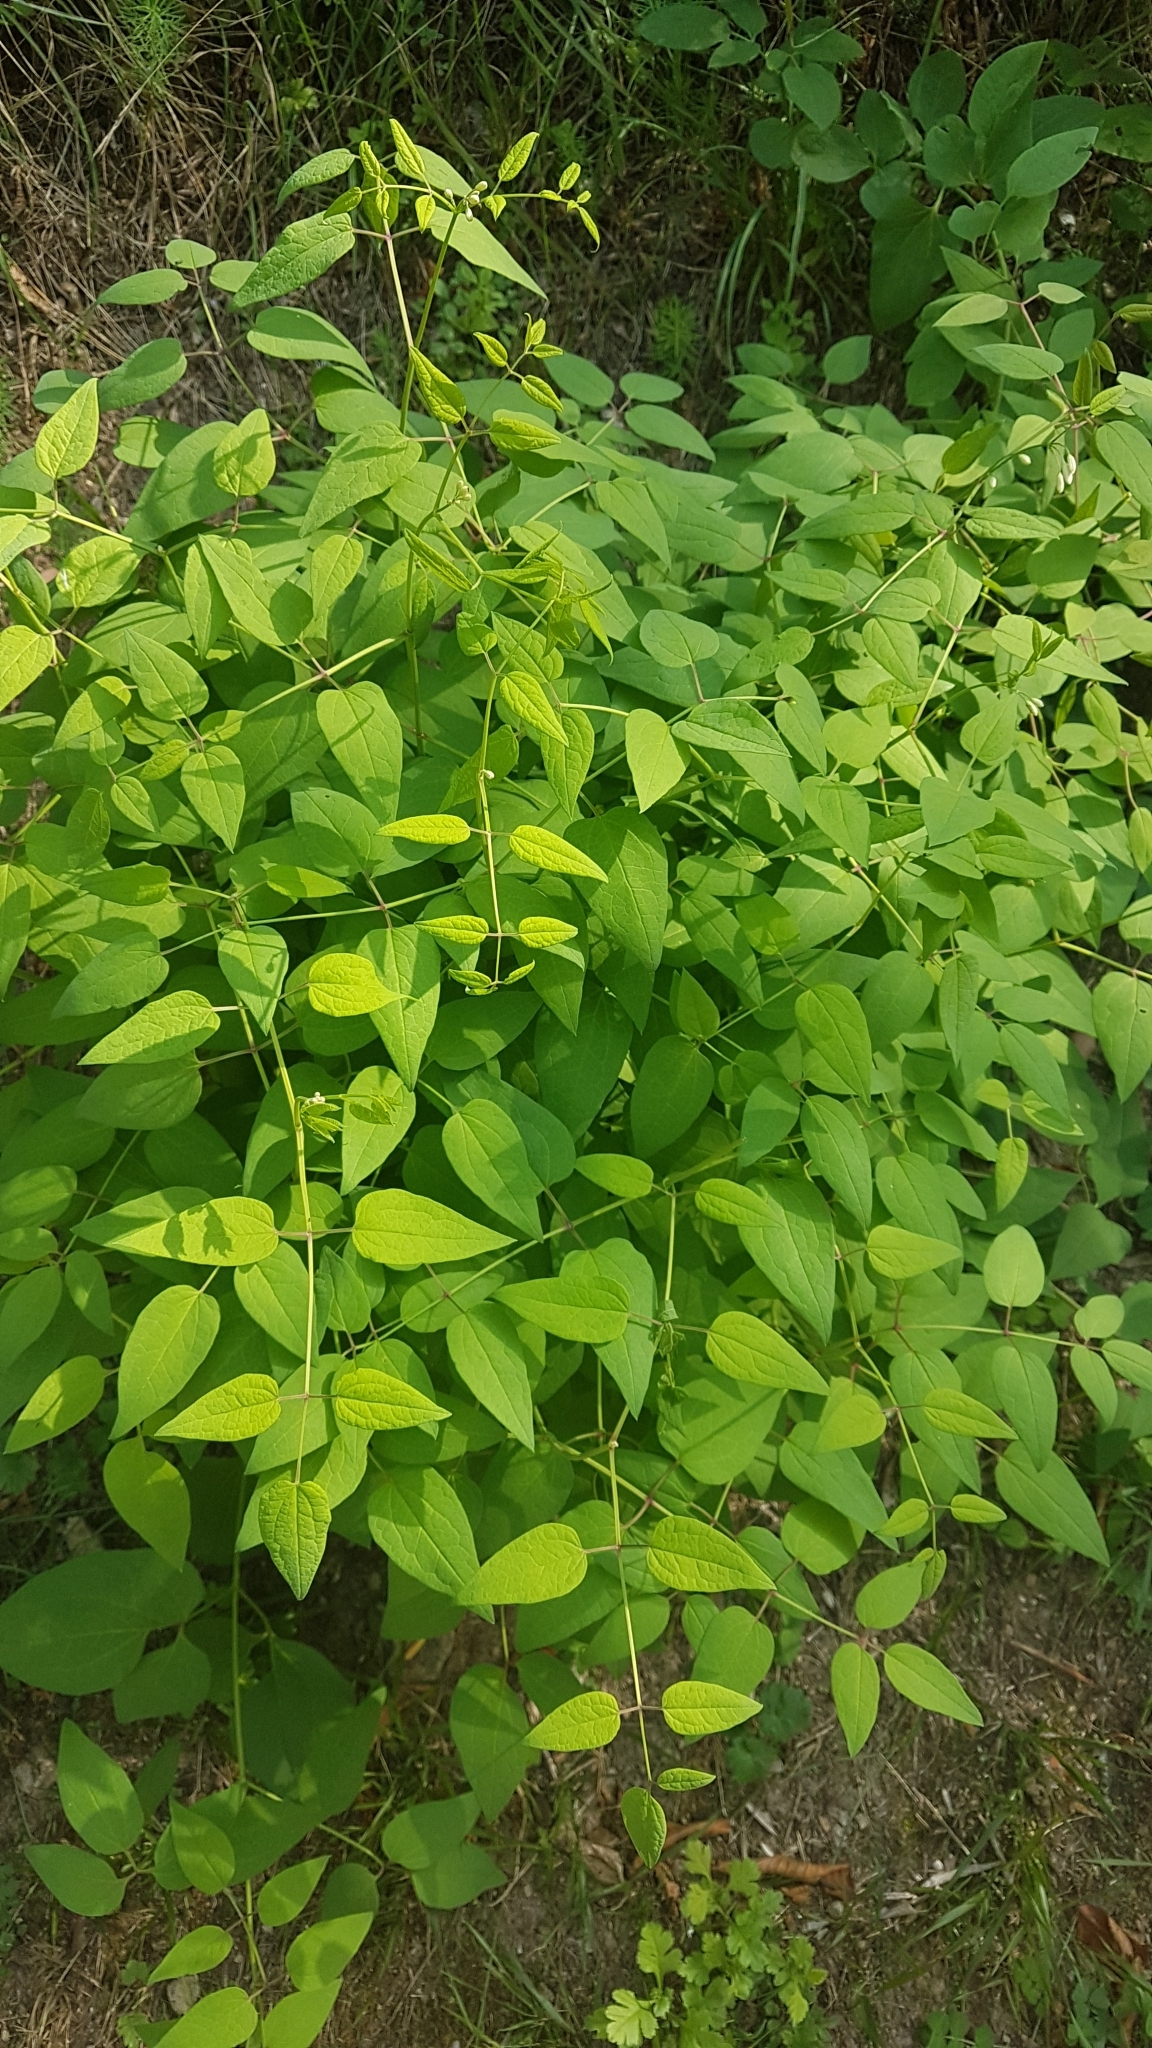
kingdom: Plantae
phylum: Tracheophyta
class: Magnoliopsida
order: Ranunculales
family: Ranunculaceae
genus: Clematis
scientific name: Clematis recta
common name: Ground clematis
